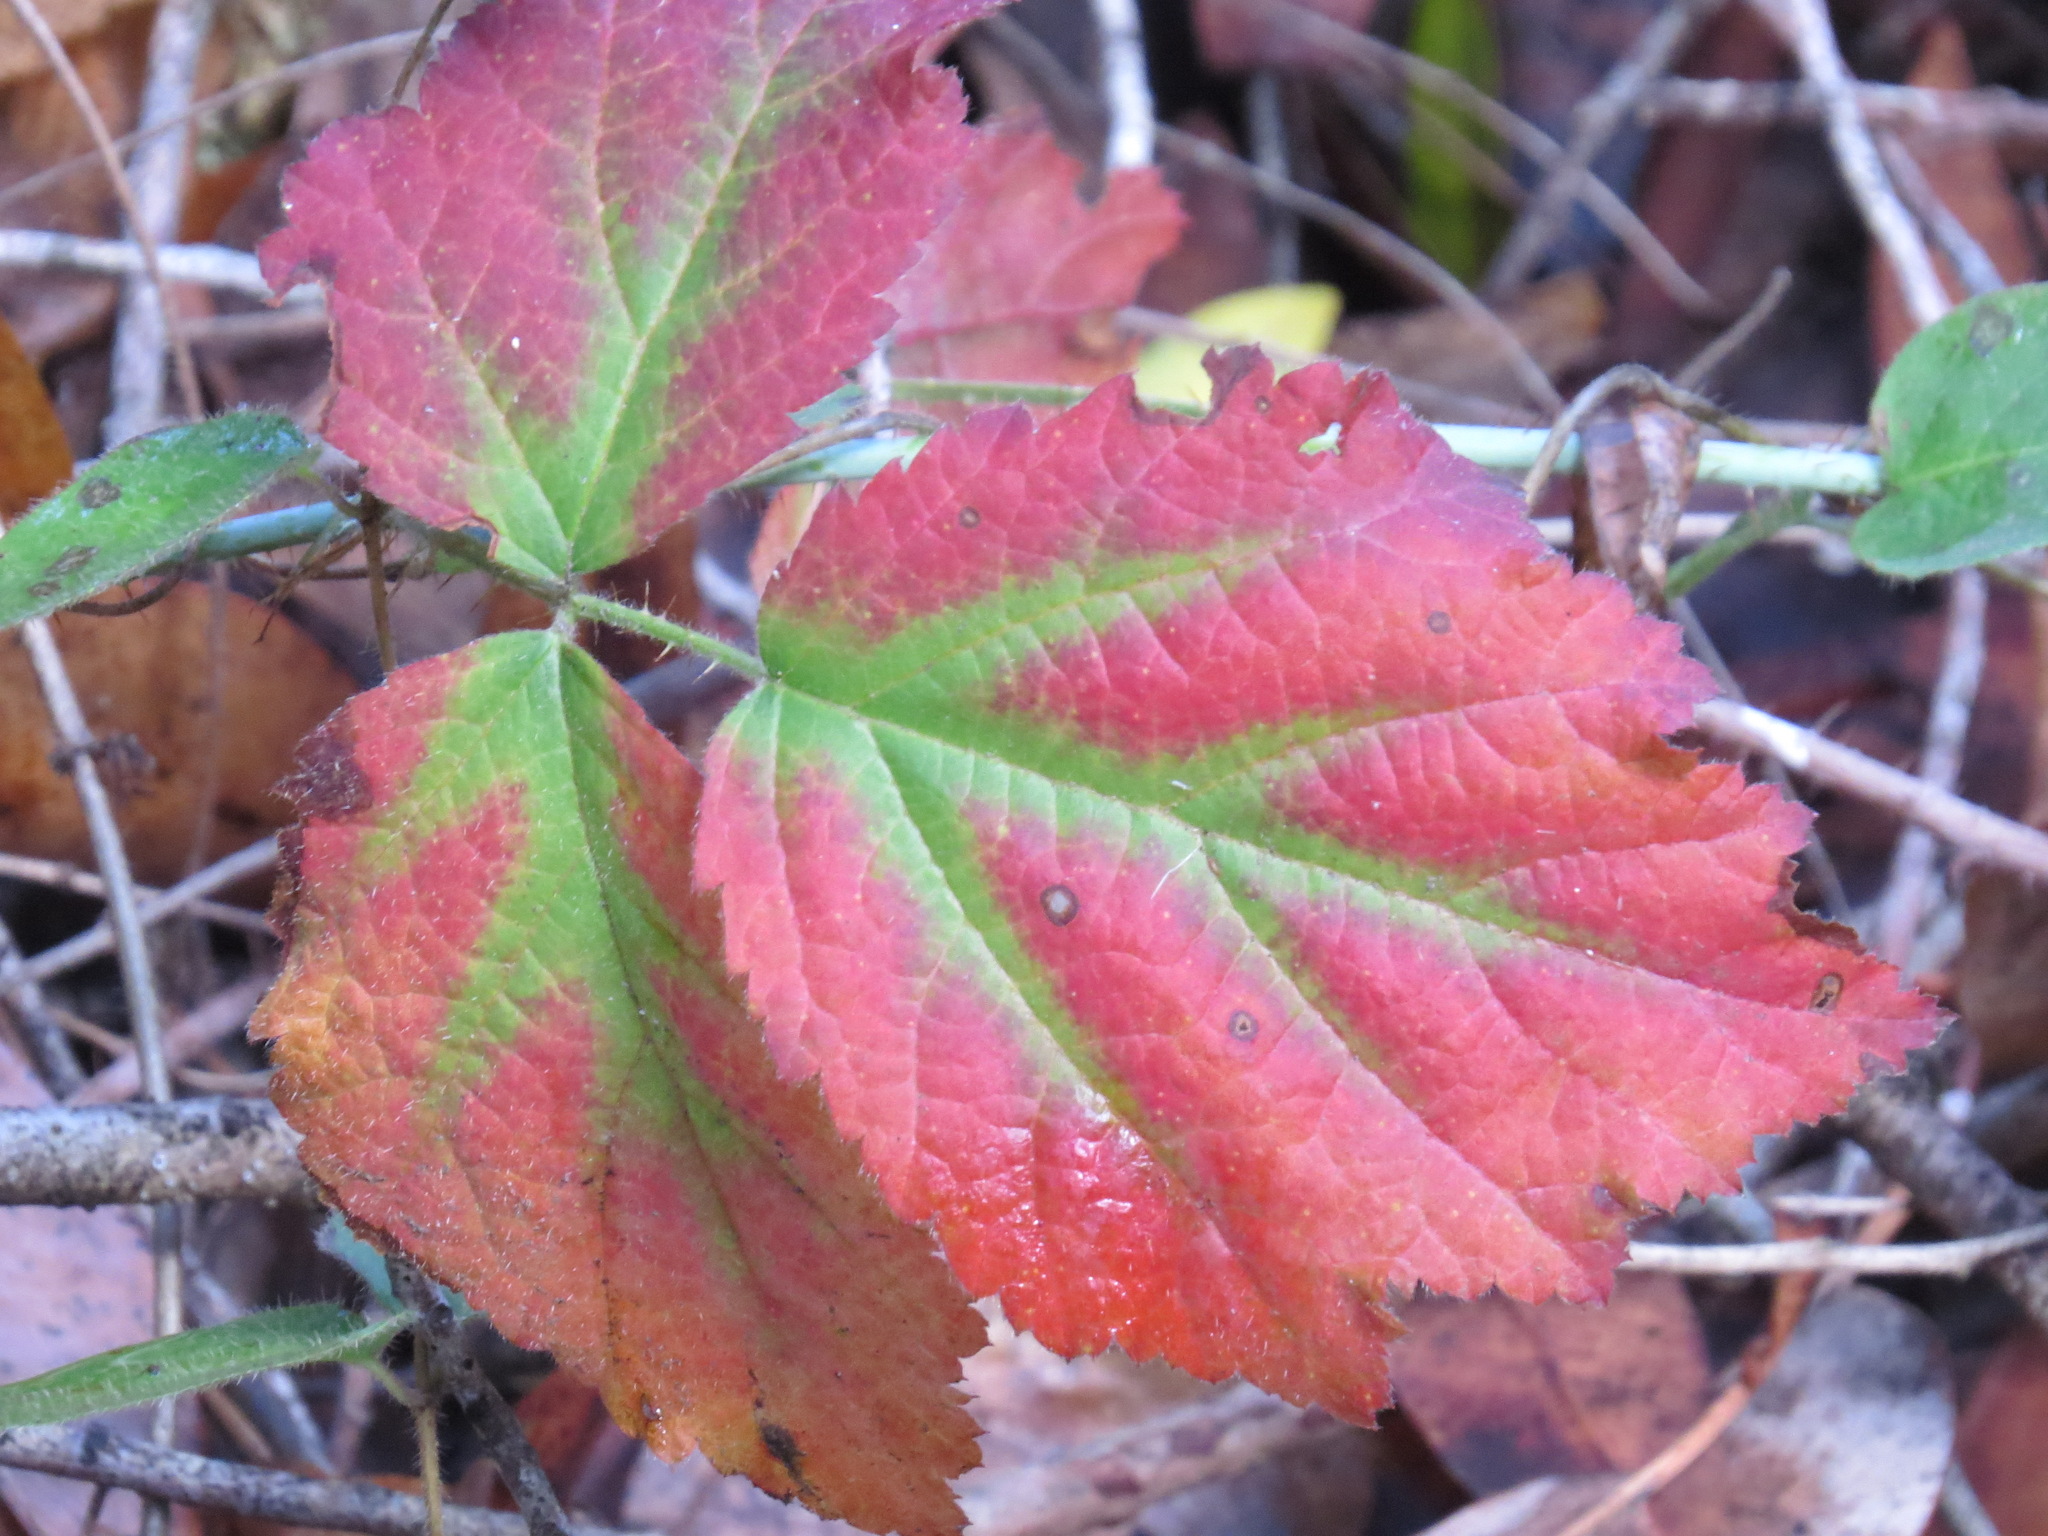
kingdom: Plantae
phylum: Tracheophyta
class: Magnoliopsida
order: Rosales
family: Rosaceae
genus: Rubus
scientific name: Rubus ursinus
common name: Pacific blackberry
